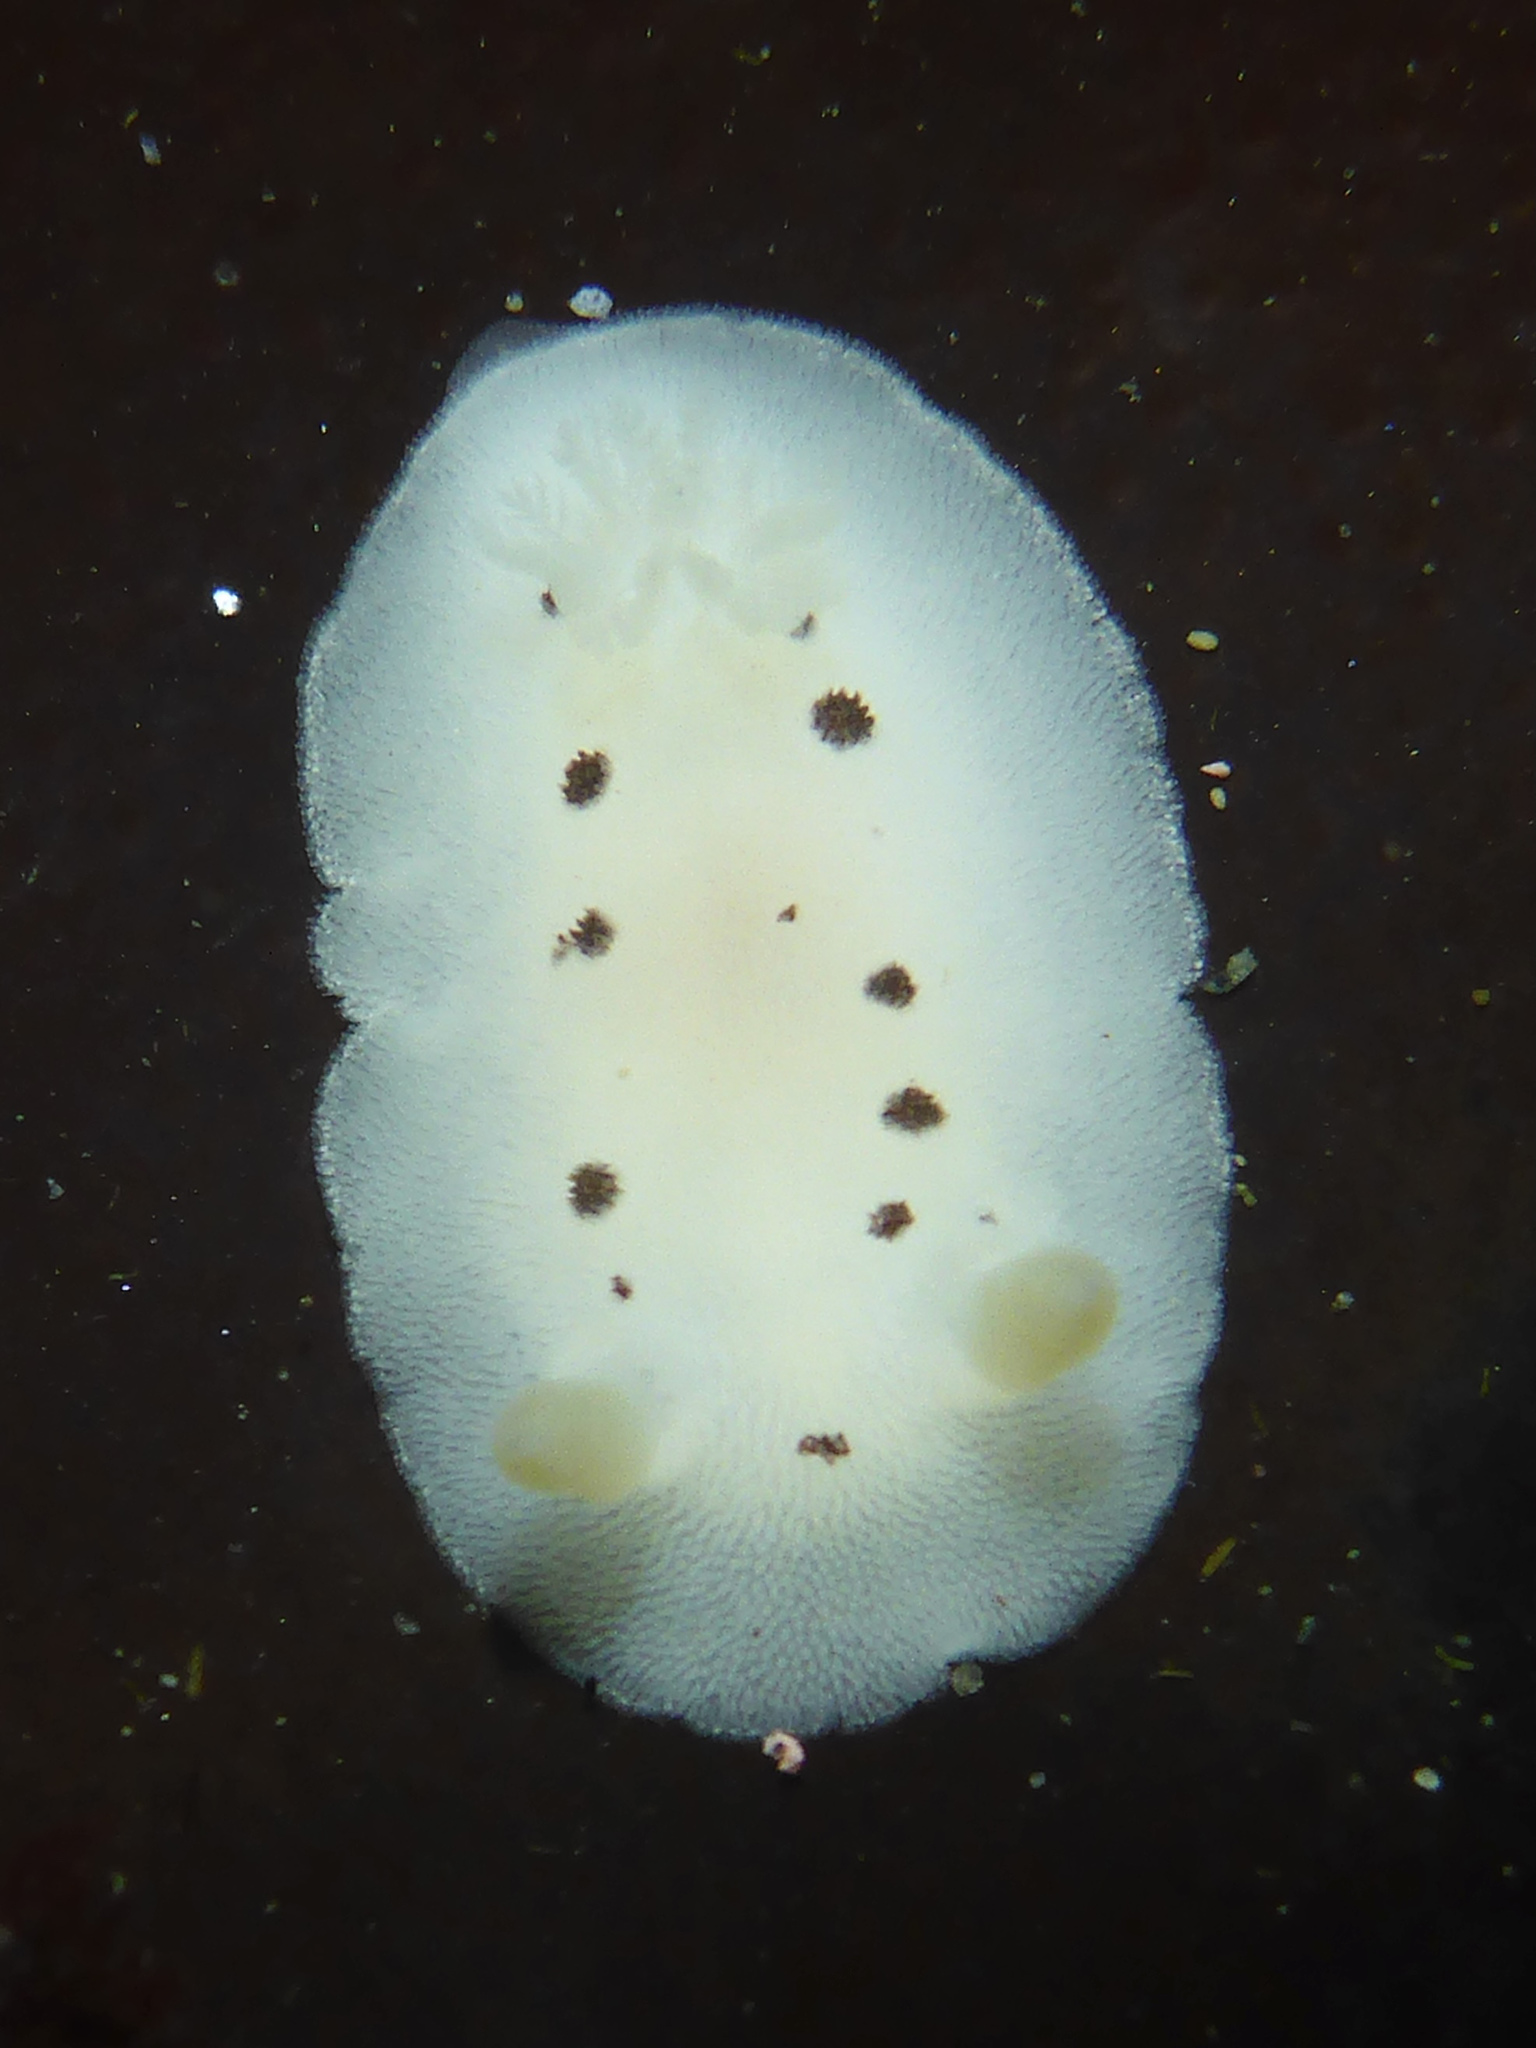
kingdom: Animalia
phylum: Mollusca
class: Gastropoda
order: Nudibranchia
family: Discodorididae
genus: Diaulula
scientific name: Diaulula sandiegensis
